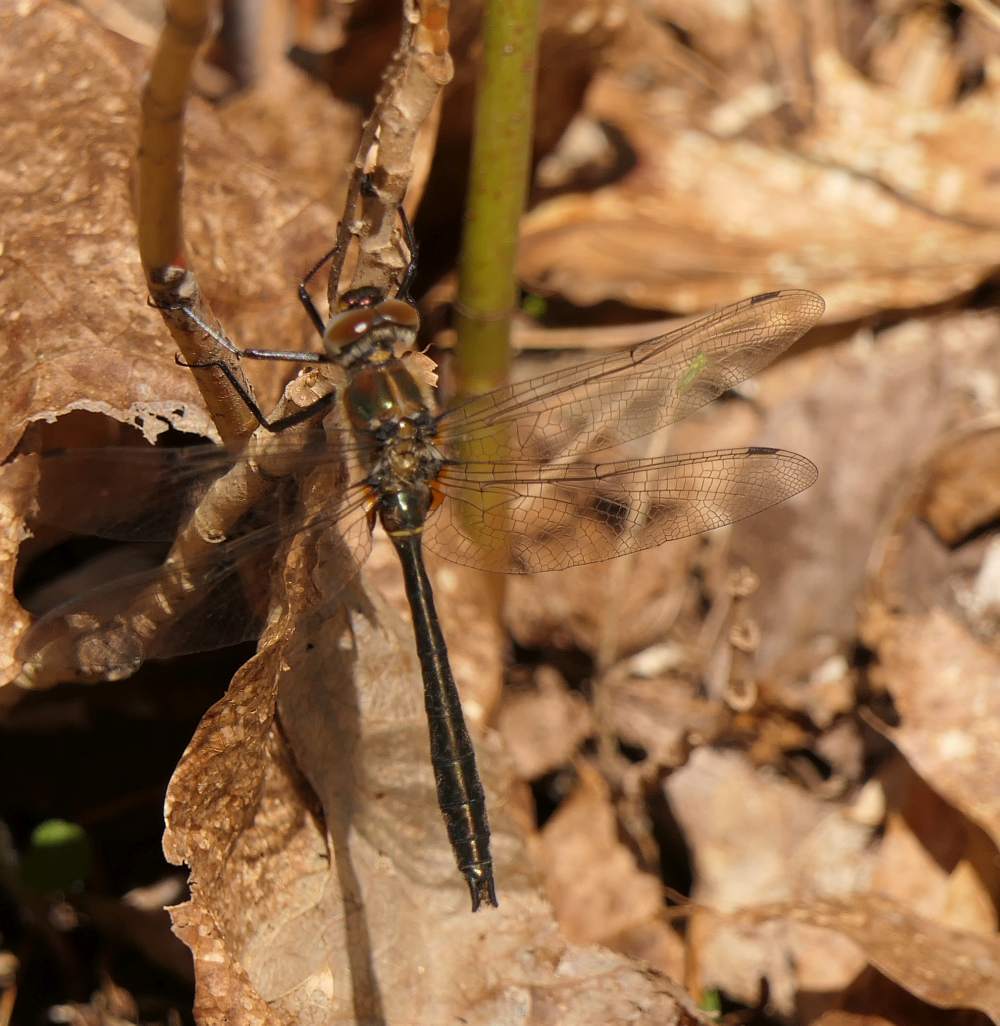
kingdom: Animalia
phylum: Arthropoda
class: Insecta
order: Odonata
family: Corduliidae
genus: Cordulia
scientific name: Cordulia shurtleffii
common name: American emerald
